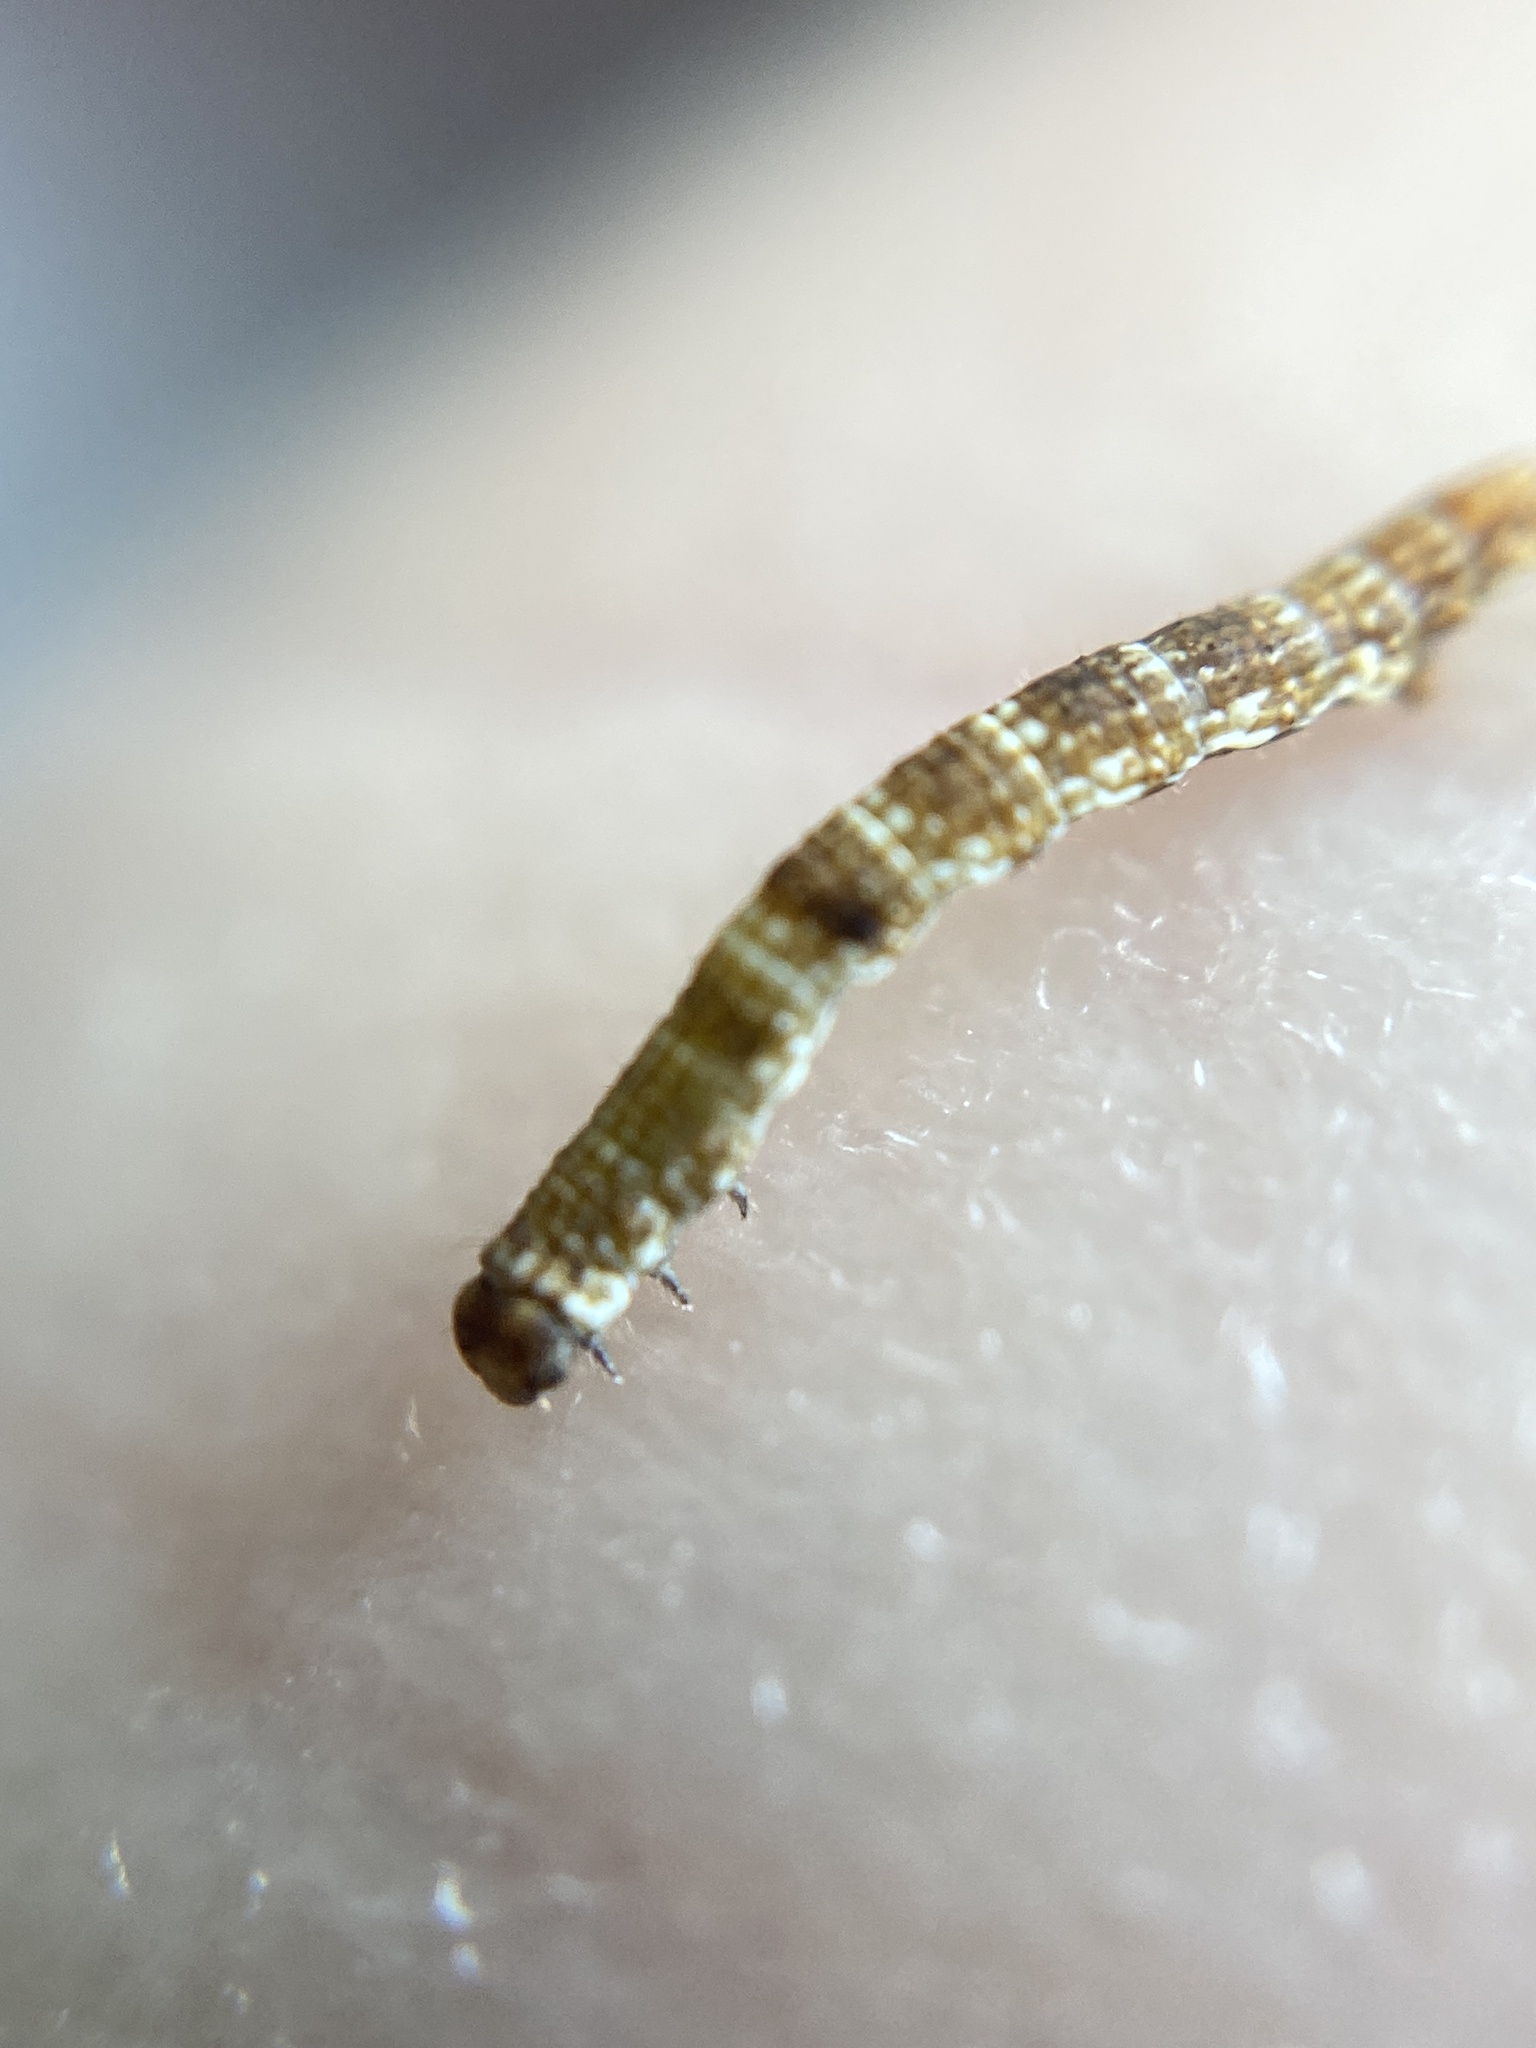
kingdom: Animalia
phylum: Arthropoda
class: Insecta
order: Lepidoptera
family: Geometridae
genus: Ectropis
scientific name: Ectropis crepuscularia
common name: Engrailed
